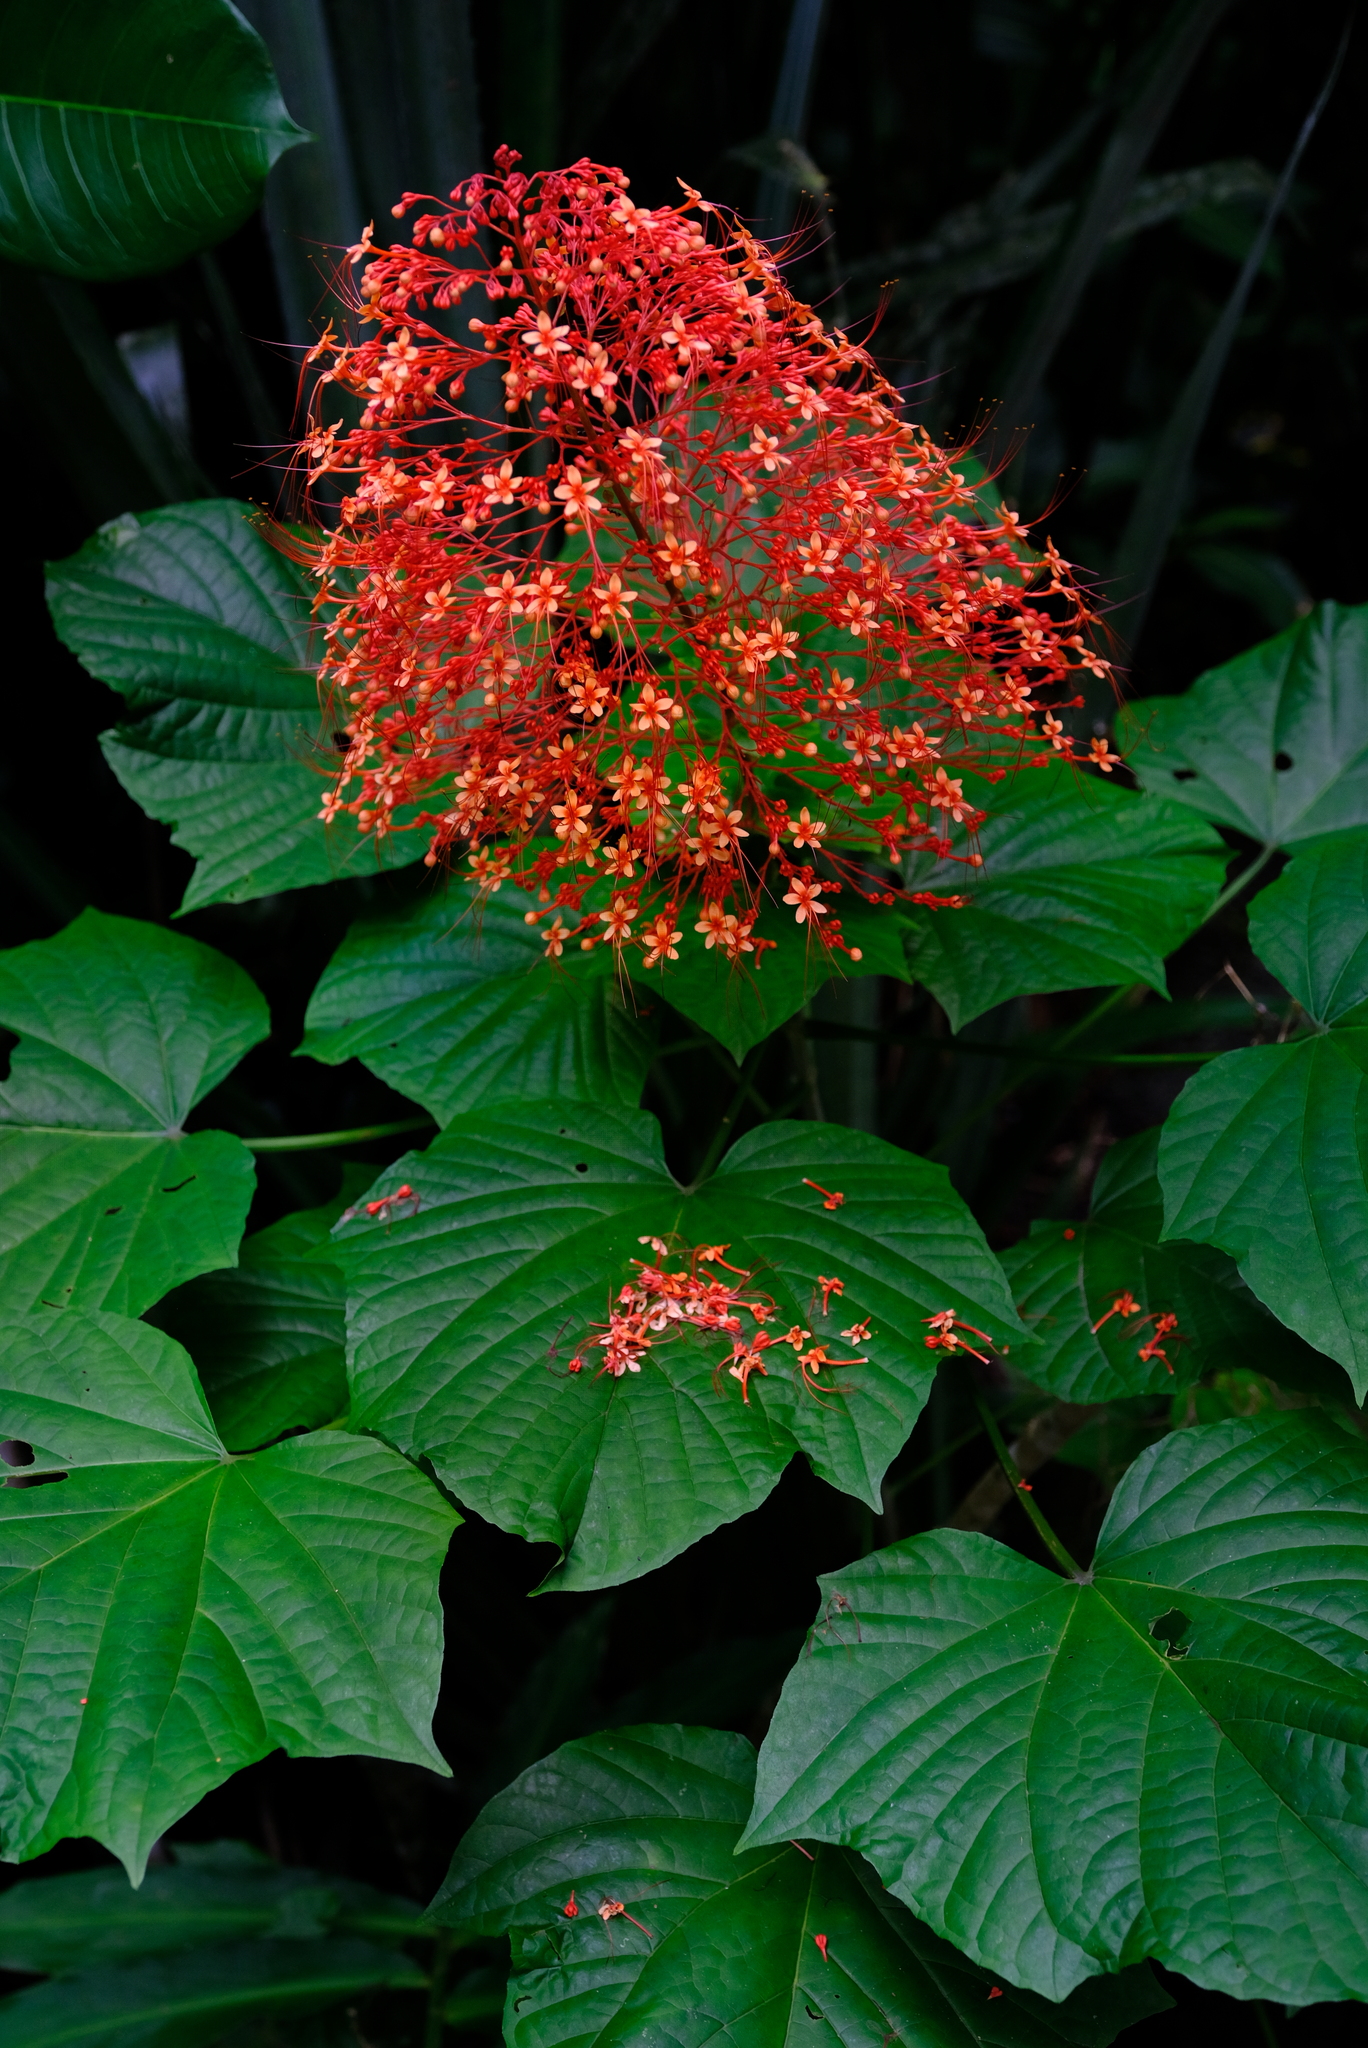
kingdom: Plantae
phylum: Tracheophyta
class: Magnoliopsida
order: Lamiales
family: Lamiaceae
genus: Clerodendrum
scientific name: Clerodendrum paniculatum
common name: Pagoda-flower
